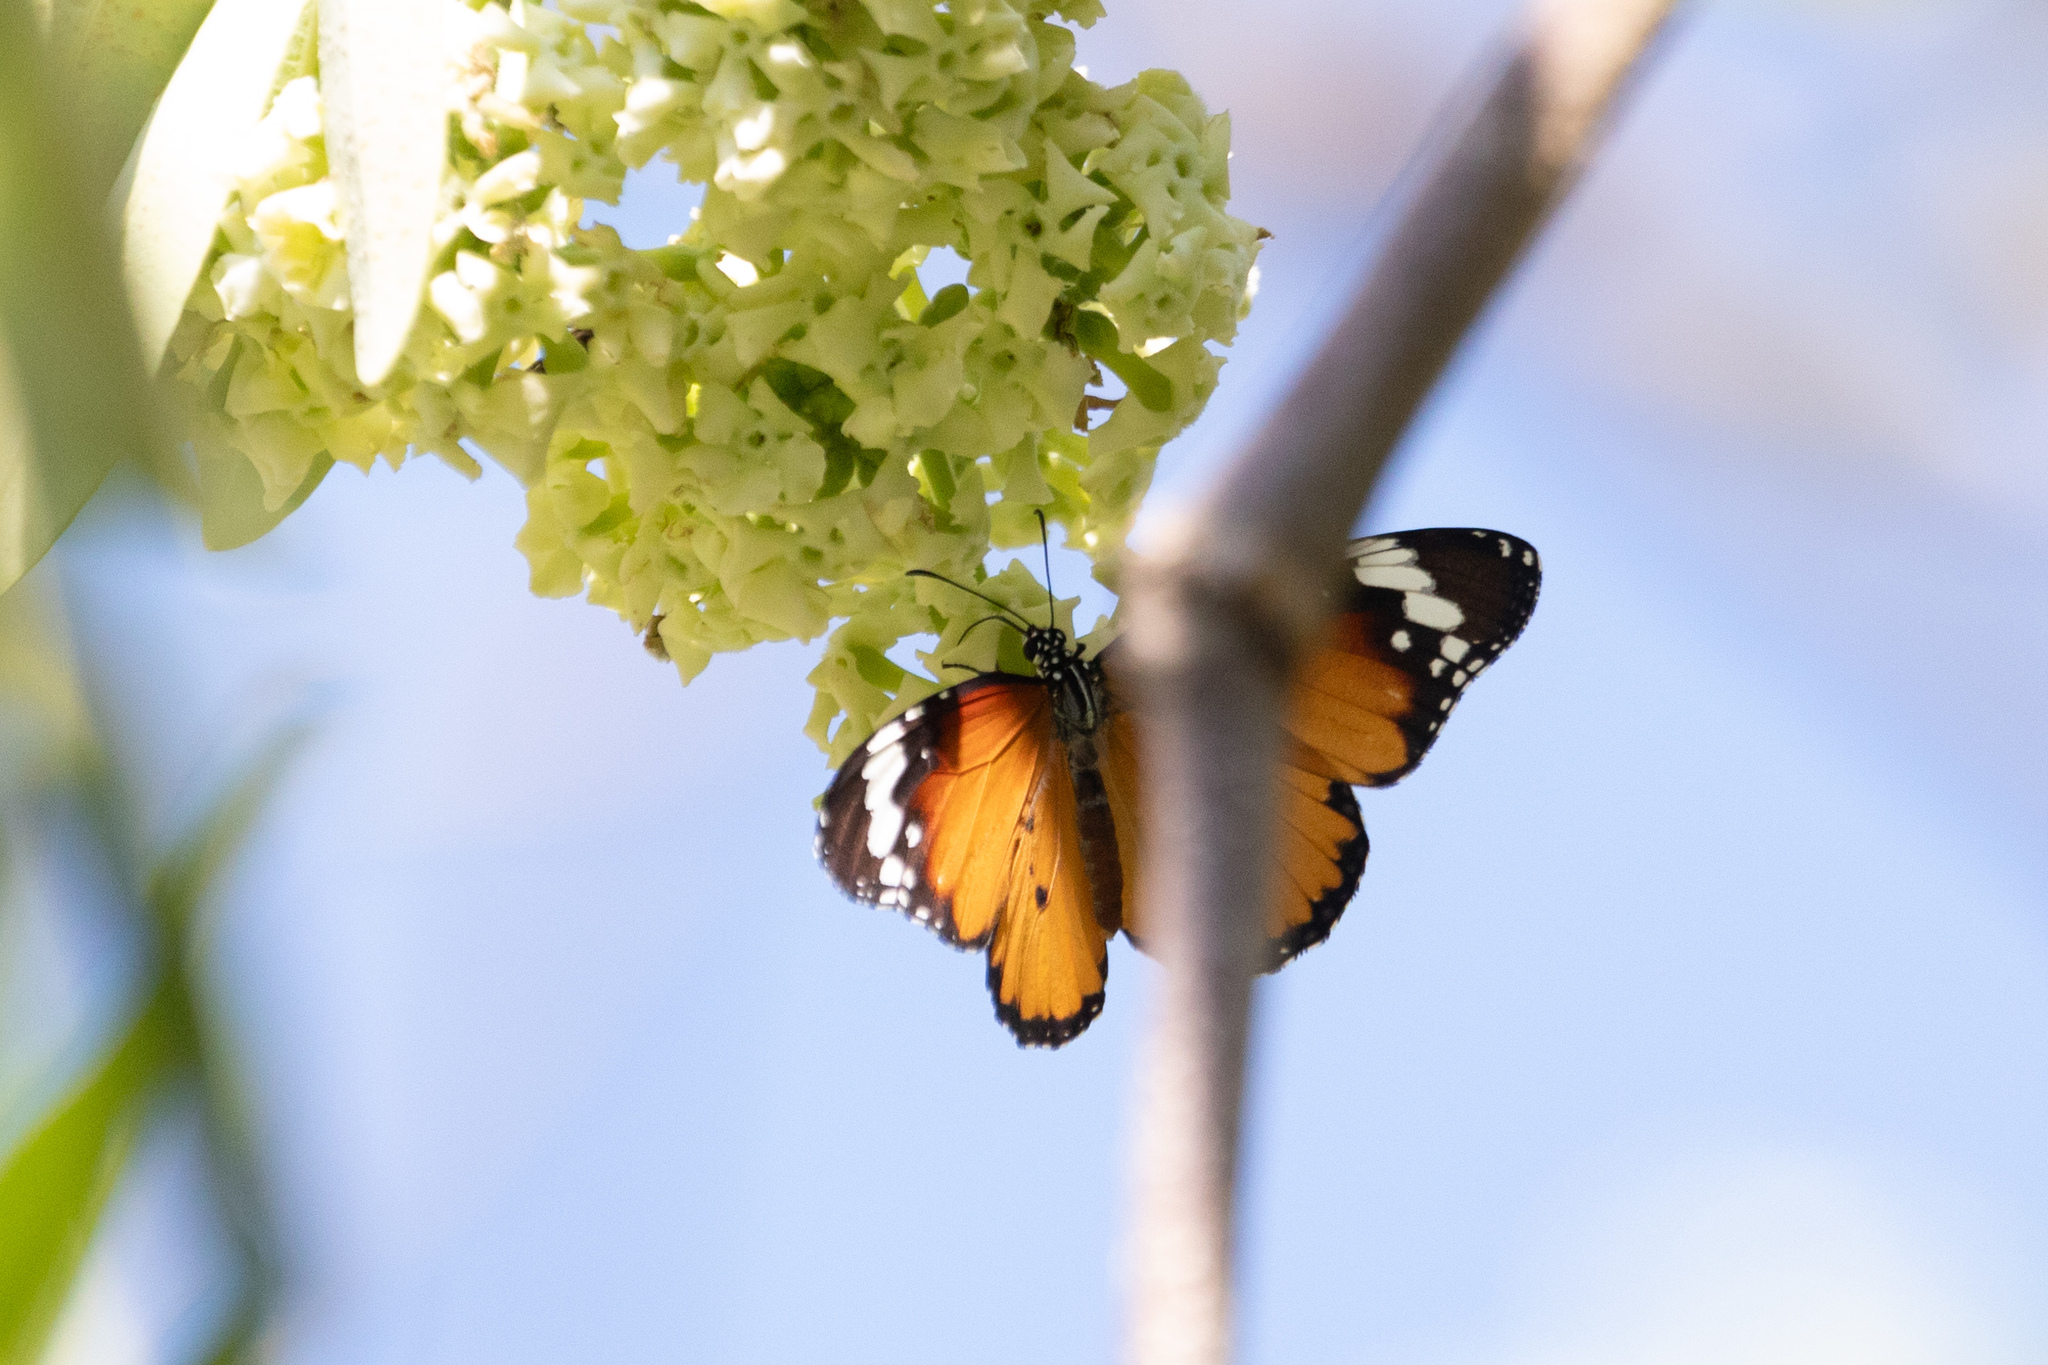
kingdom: Animalia
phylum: Arthropoda
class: Insecta
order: Lepidoptera
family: Nymphalidae
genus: Danaus
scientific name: Danaus chrysippus
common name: Plain tiger
